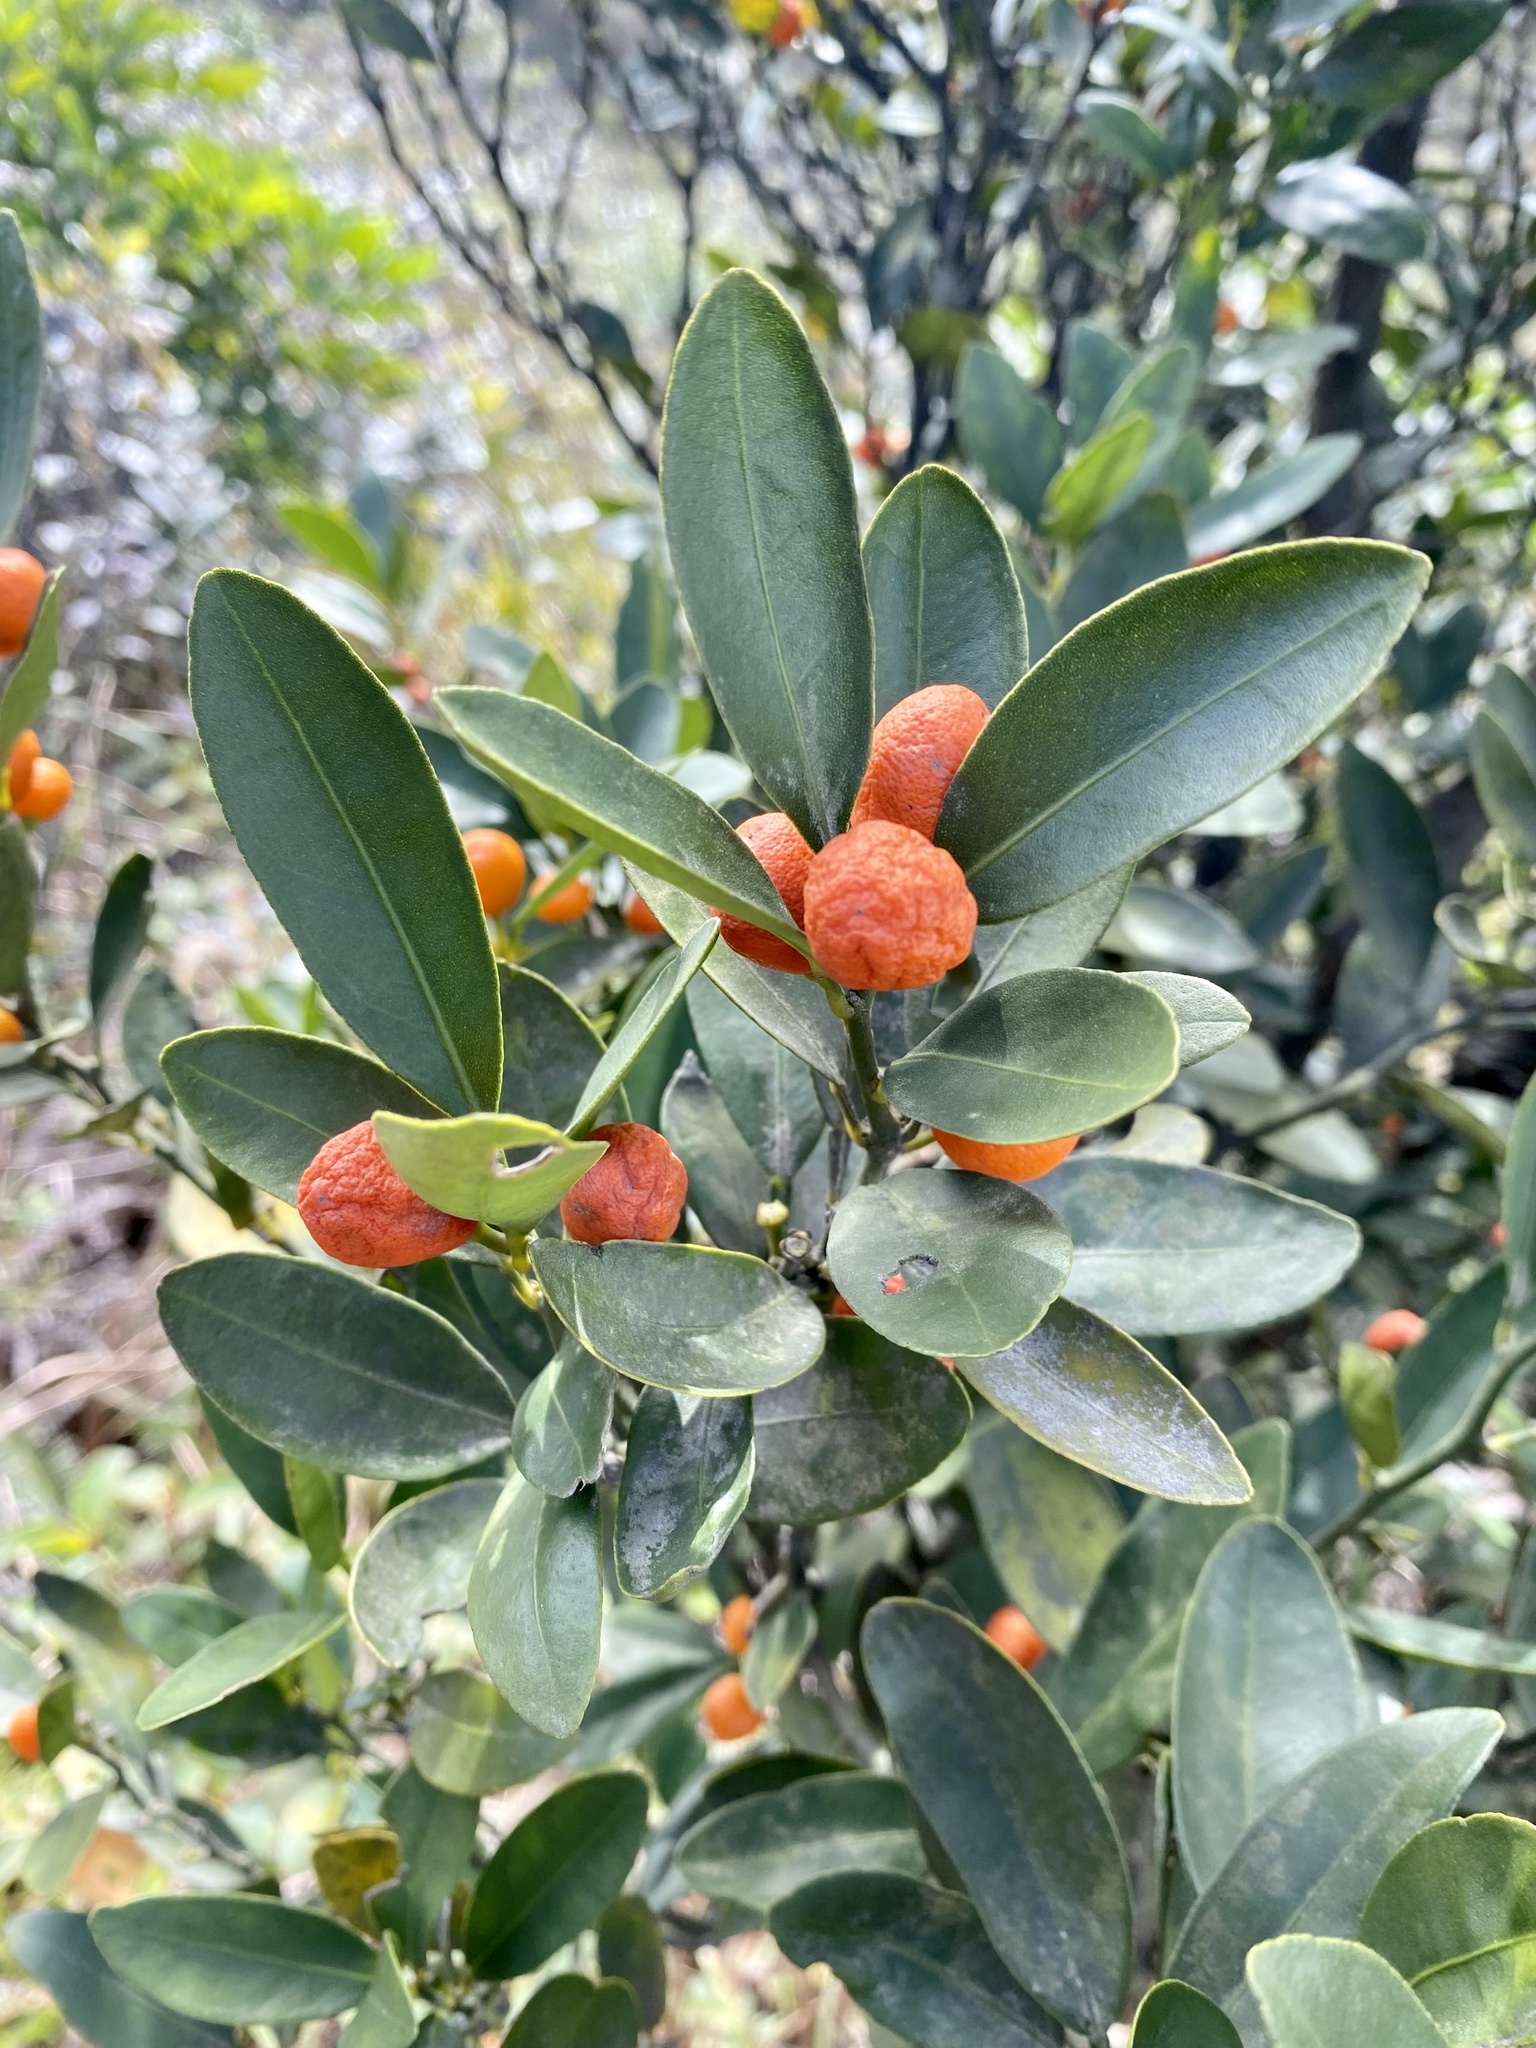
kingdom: Plantae
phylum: Tracheophyta
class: Magnoliopsida
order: Sapindales
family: Rutaceae
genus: Citrus
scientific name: Citrus japonica
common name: Kumquat
